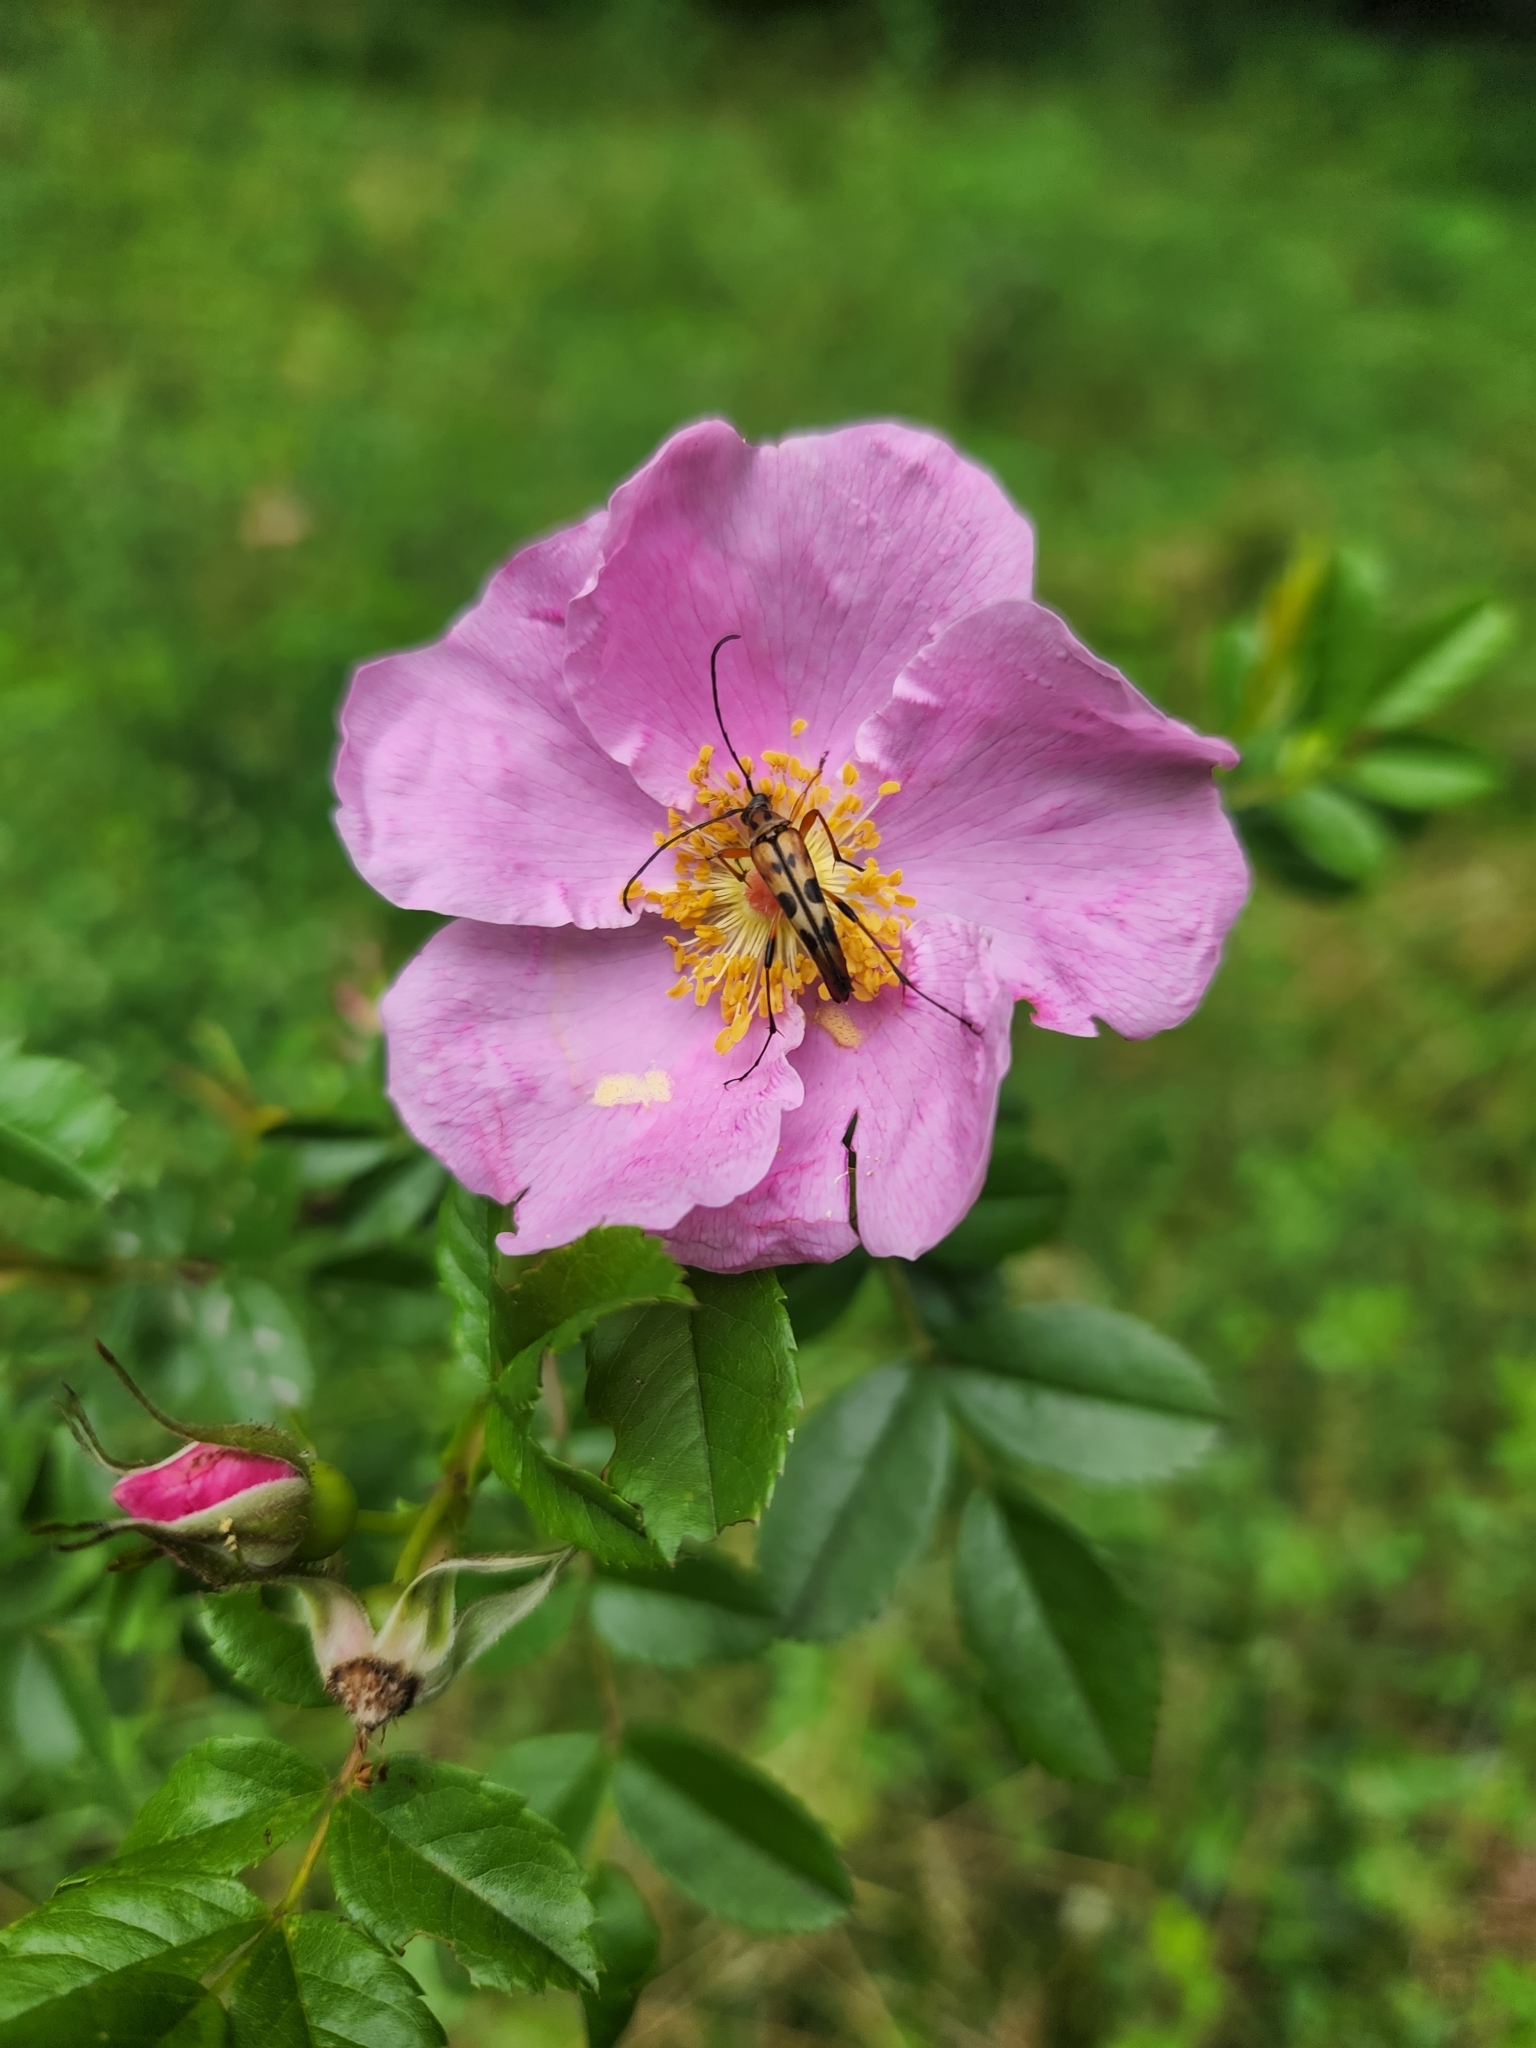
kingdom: Animalia
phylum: Arthropoda
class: Insecta
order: Coleoptera
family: Cerambycidae
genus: Strangalia
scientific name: Strangalia luteicornis
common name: Yellow-horned flower longhorn beetle
